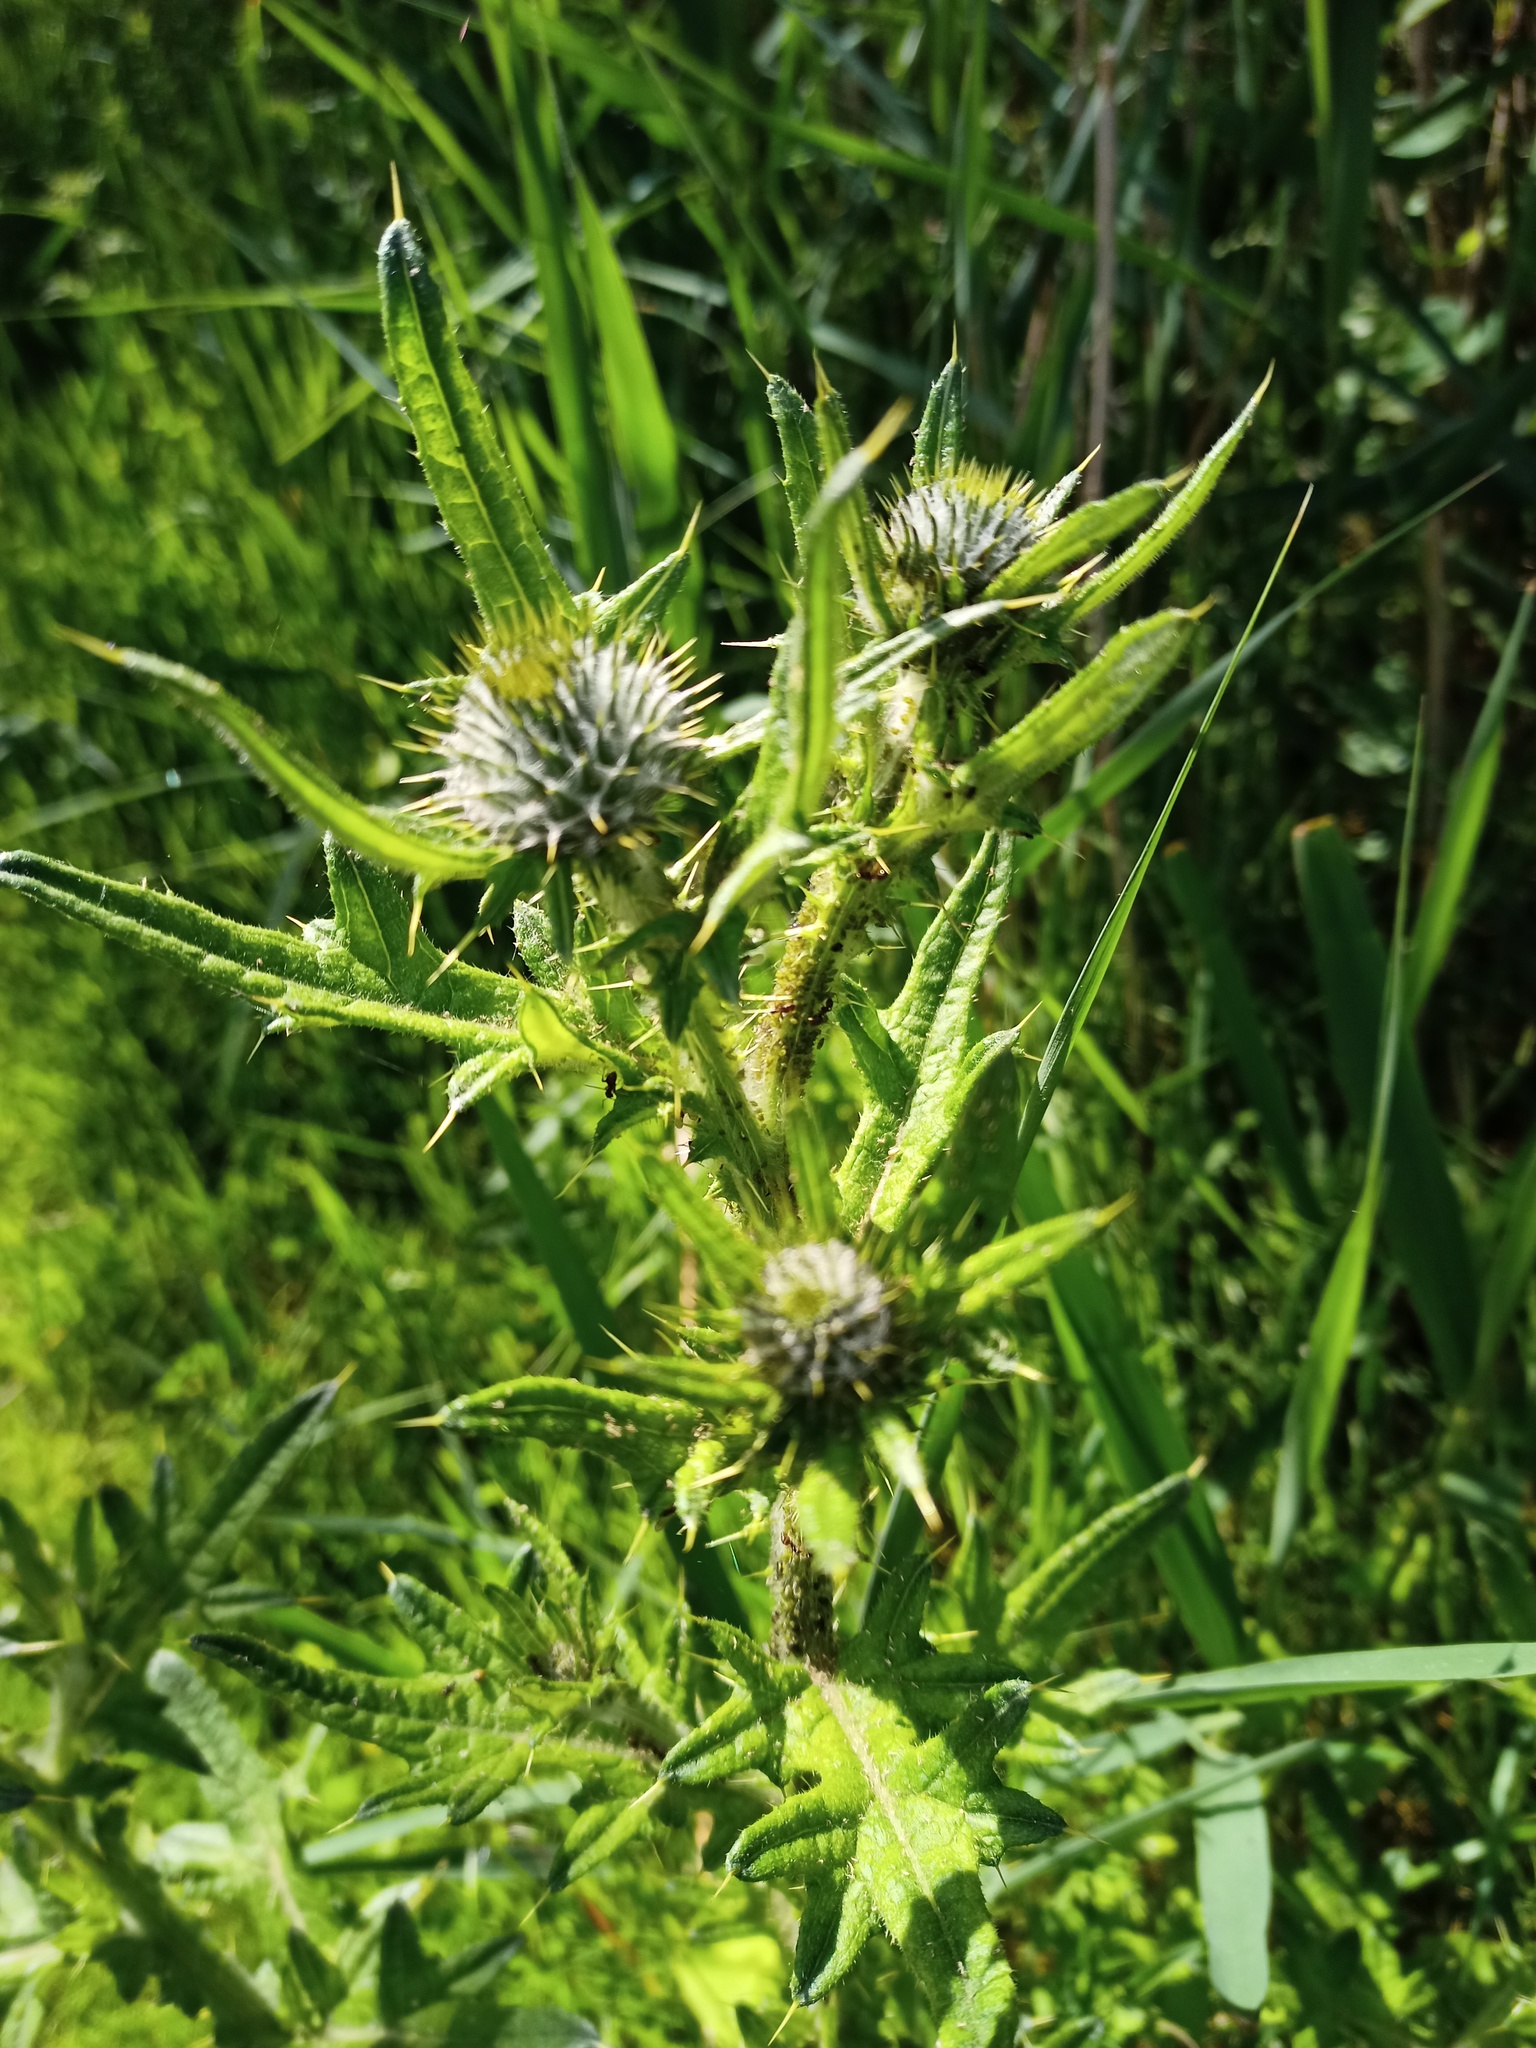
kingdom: Plantae
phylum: Tracheophyta
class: Magnoliopsida
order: Asterales
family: Asteraceae
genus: Cirsium
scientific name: Cirsium vulgare
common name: Bull thistle
